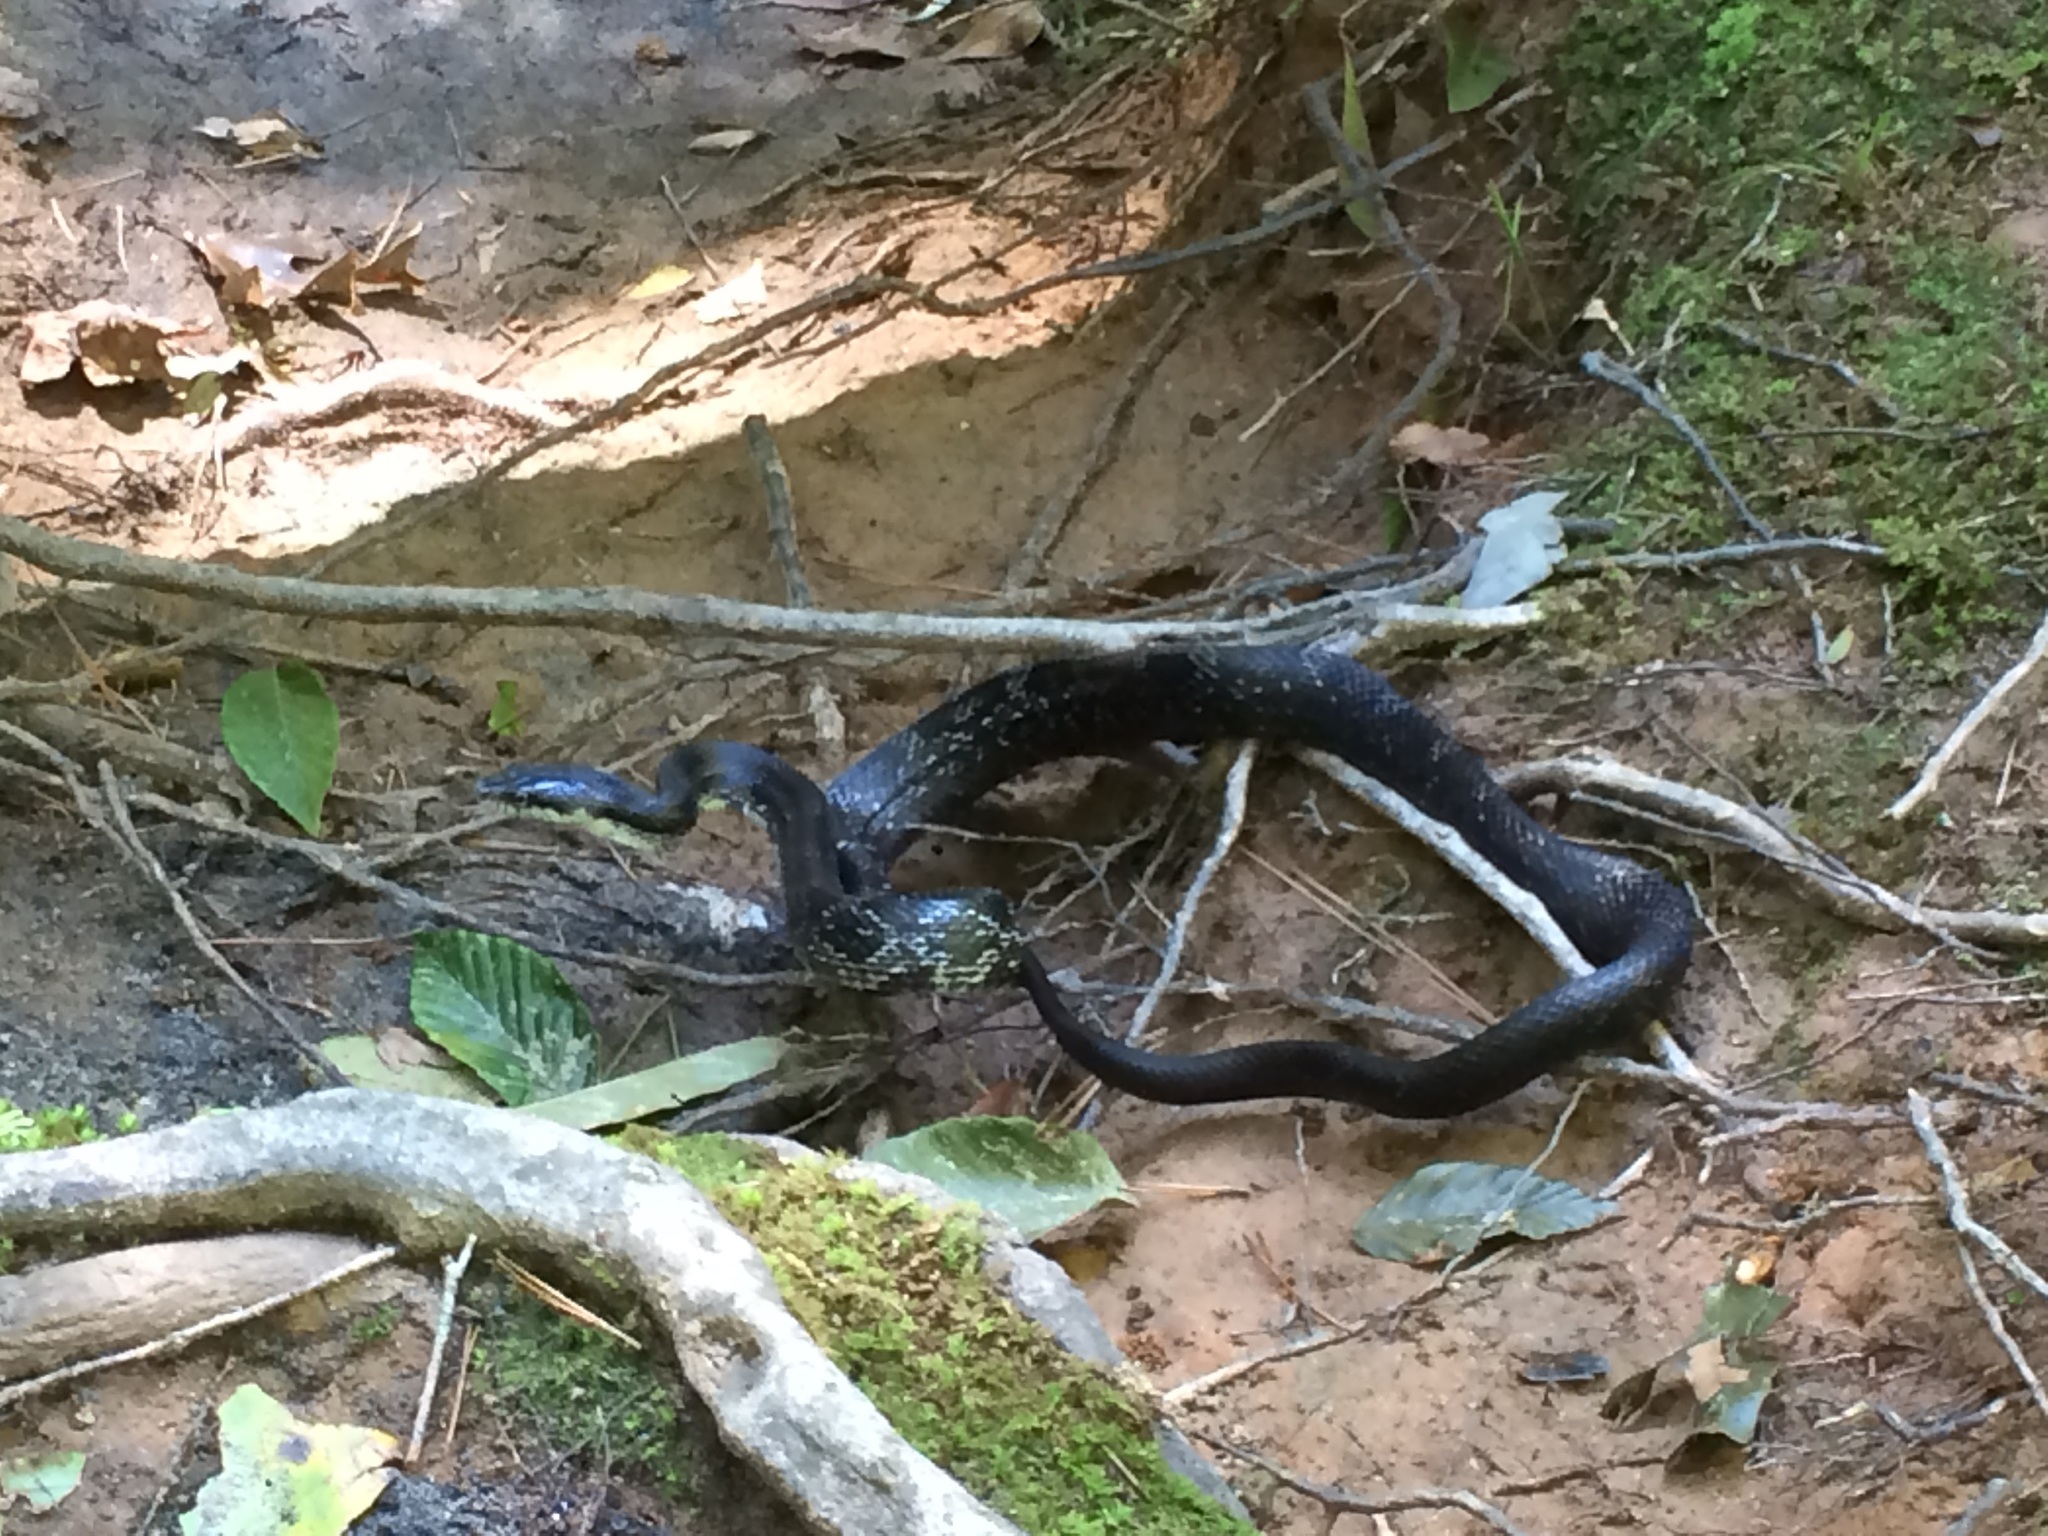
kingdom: Animalia
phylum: Chordata
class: Squamata
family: Colubridae
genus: Pantherophis
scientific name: Pantherophis alleghaniensis
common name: Eastern rat snake
